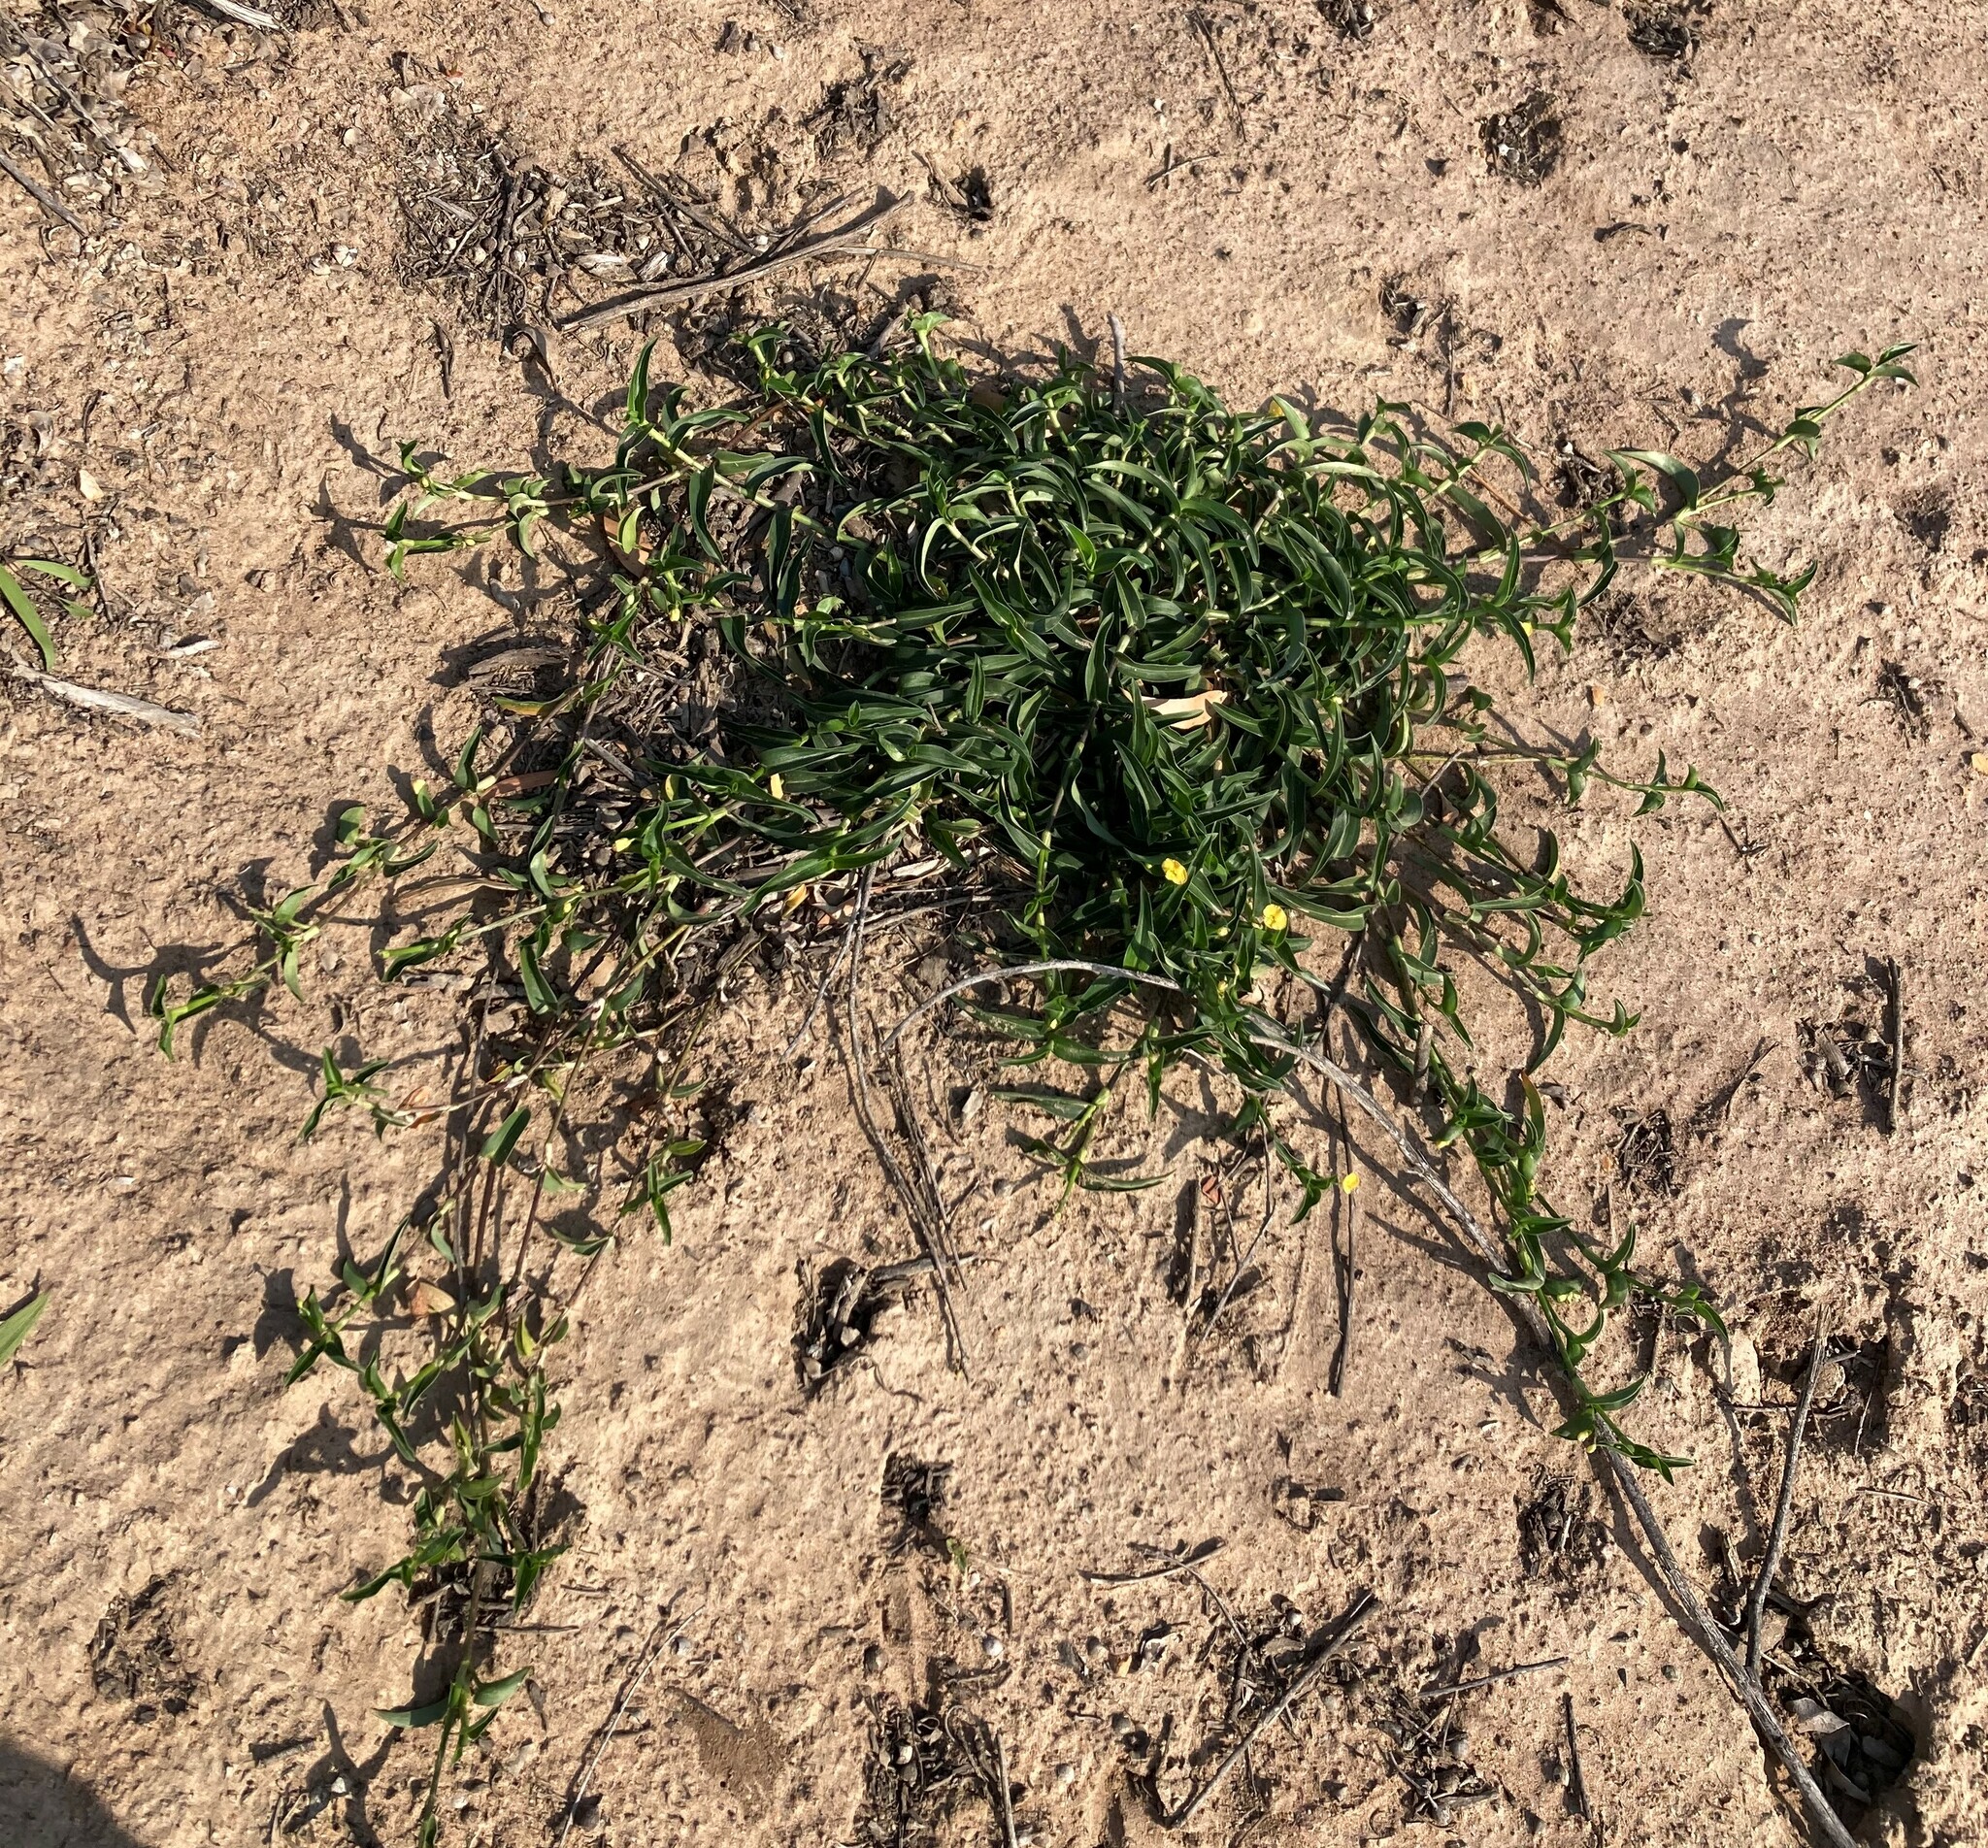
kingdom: Plantae
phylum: Tracheophyta
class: Liliopsida
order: Commelinales
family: Commelinaceae
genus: Commelina
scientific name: Commelina africana
